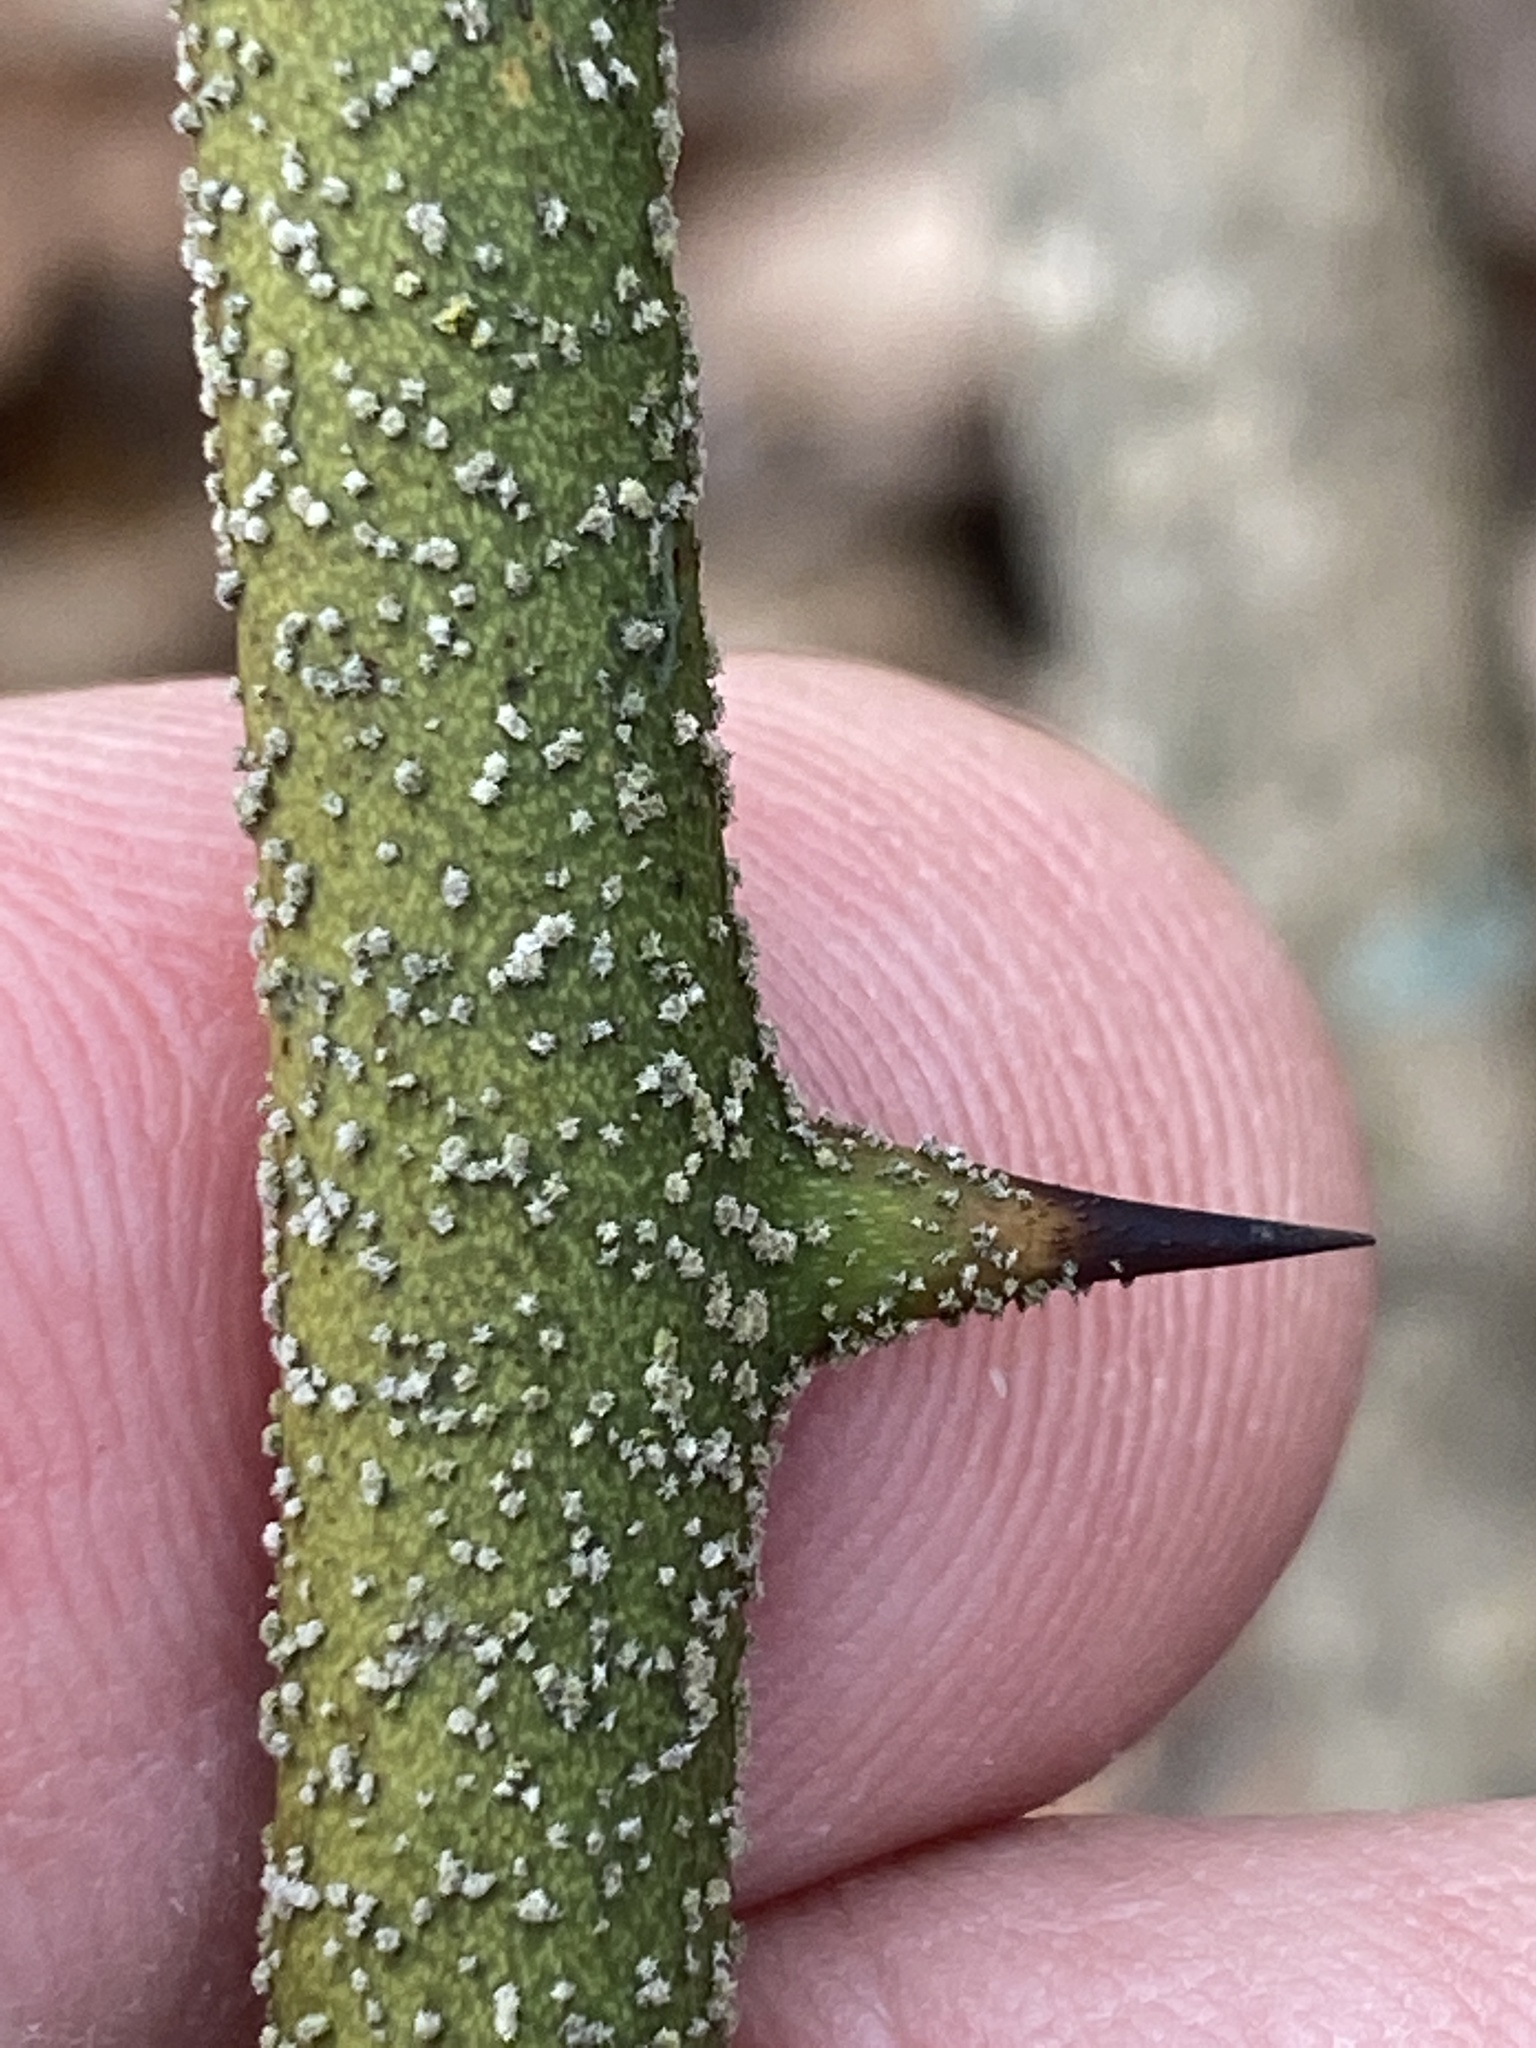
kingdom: Plantae
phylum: Tracheophyta
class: Liliopsida
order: Liliales
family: Smilacaceae
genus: Smilax
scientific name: Smilax bona-nox
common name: Catbrier
